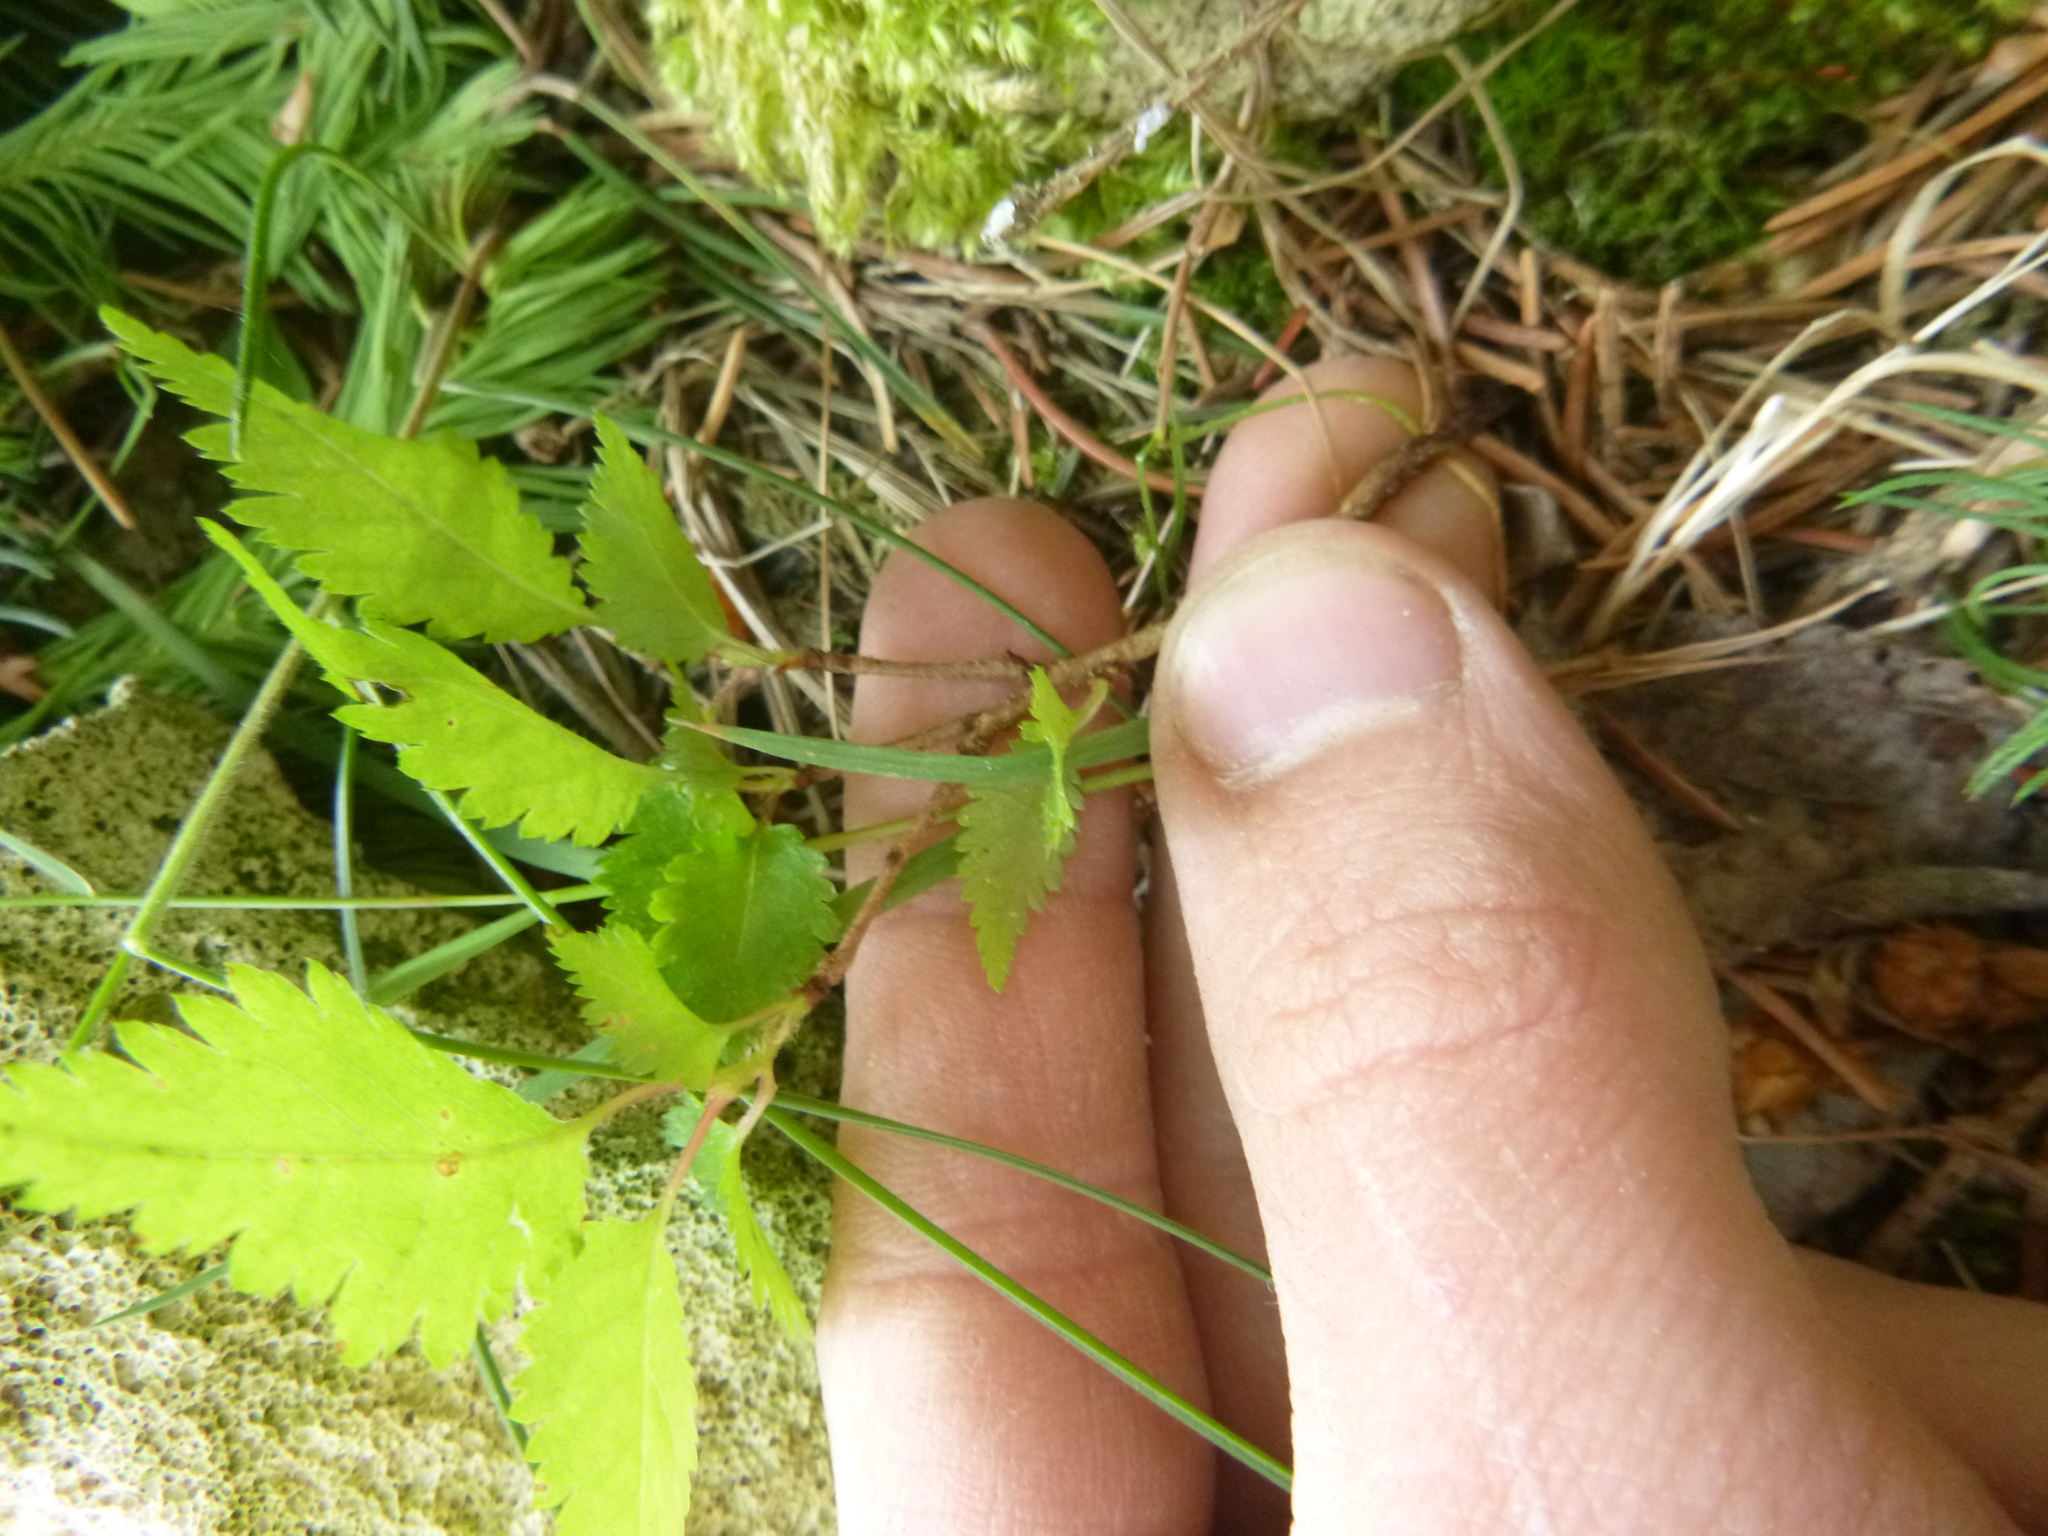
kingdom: Plantae
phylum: Tracheophyta
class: Magnoliopsida
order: Fagales
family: Betulaceae
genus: Betula
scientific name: Betula pendula
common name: Silver birch
